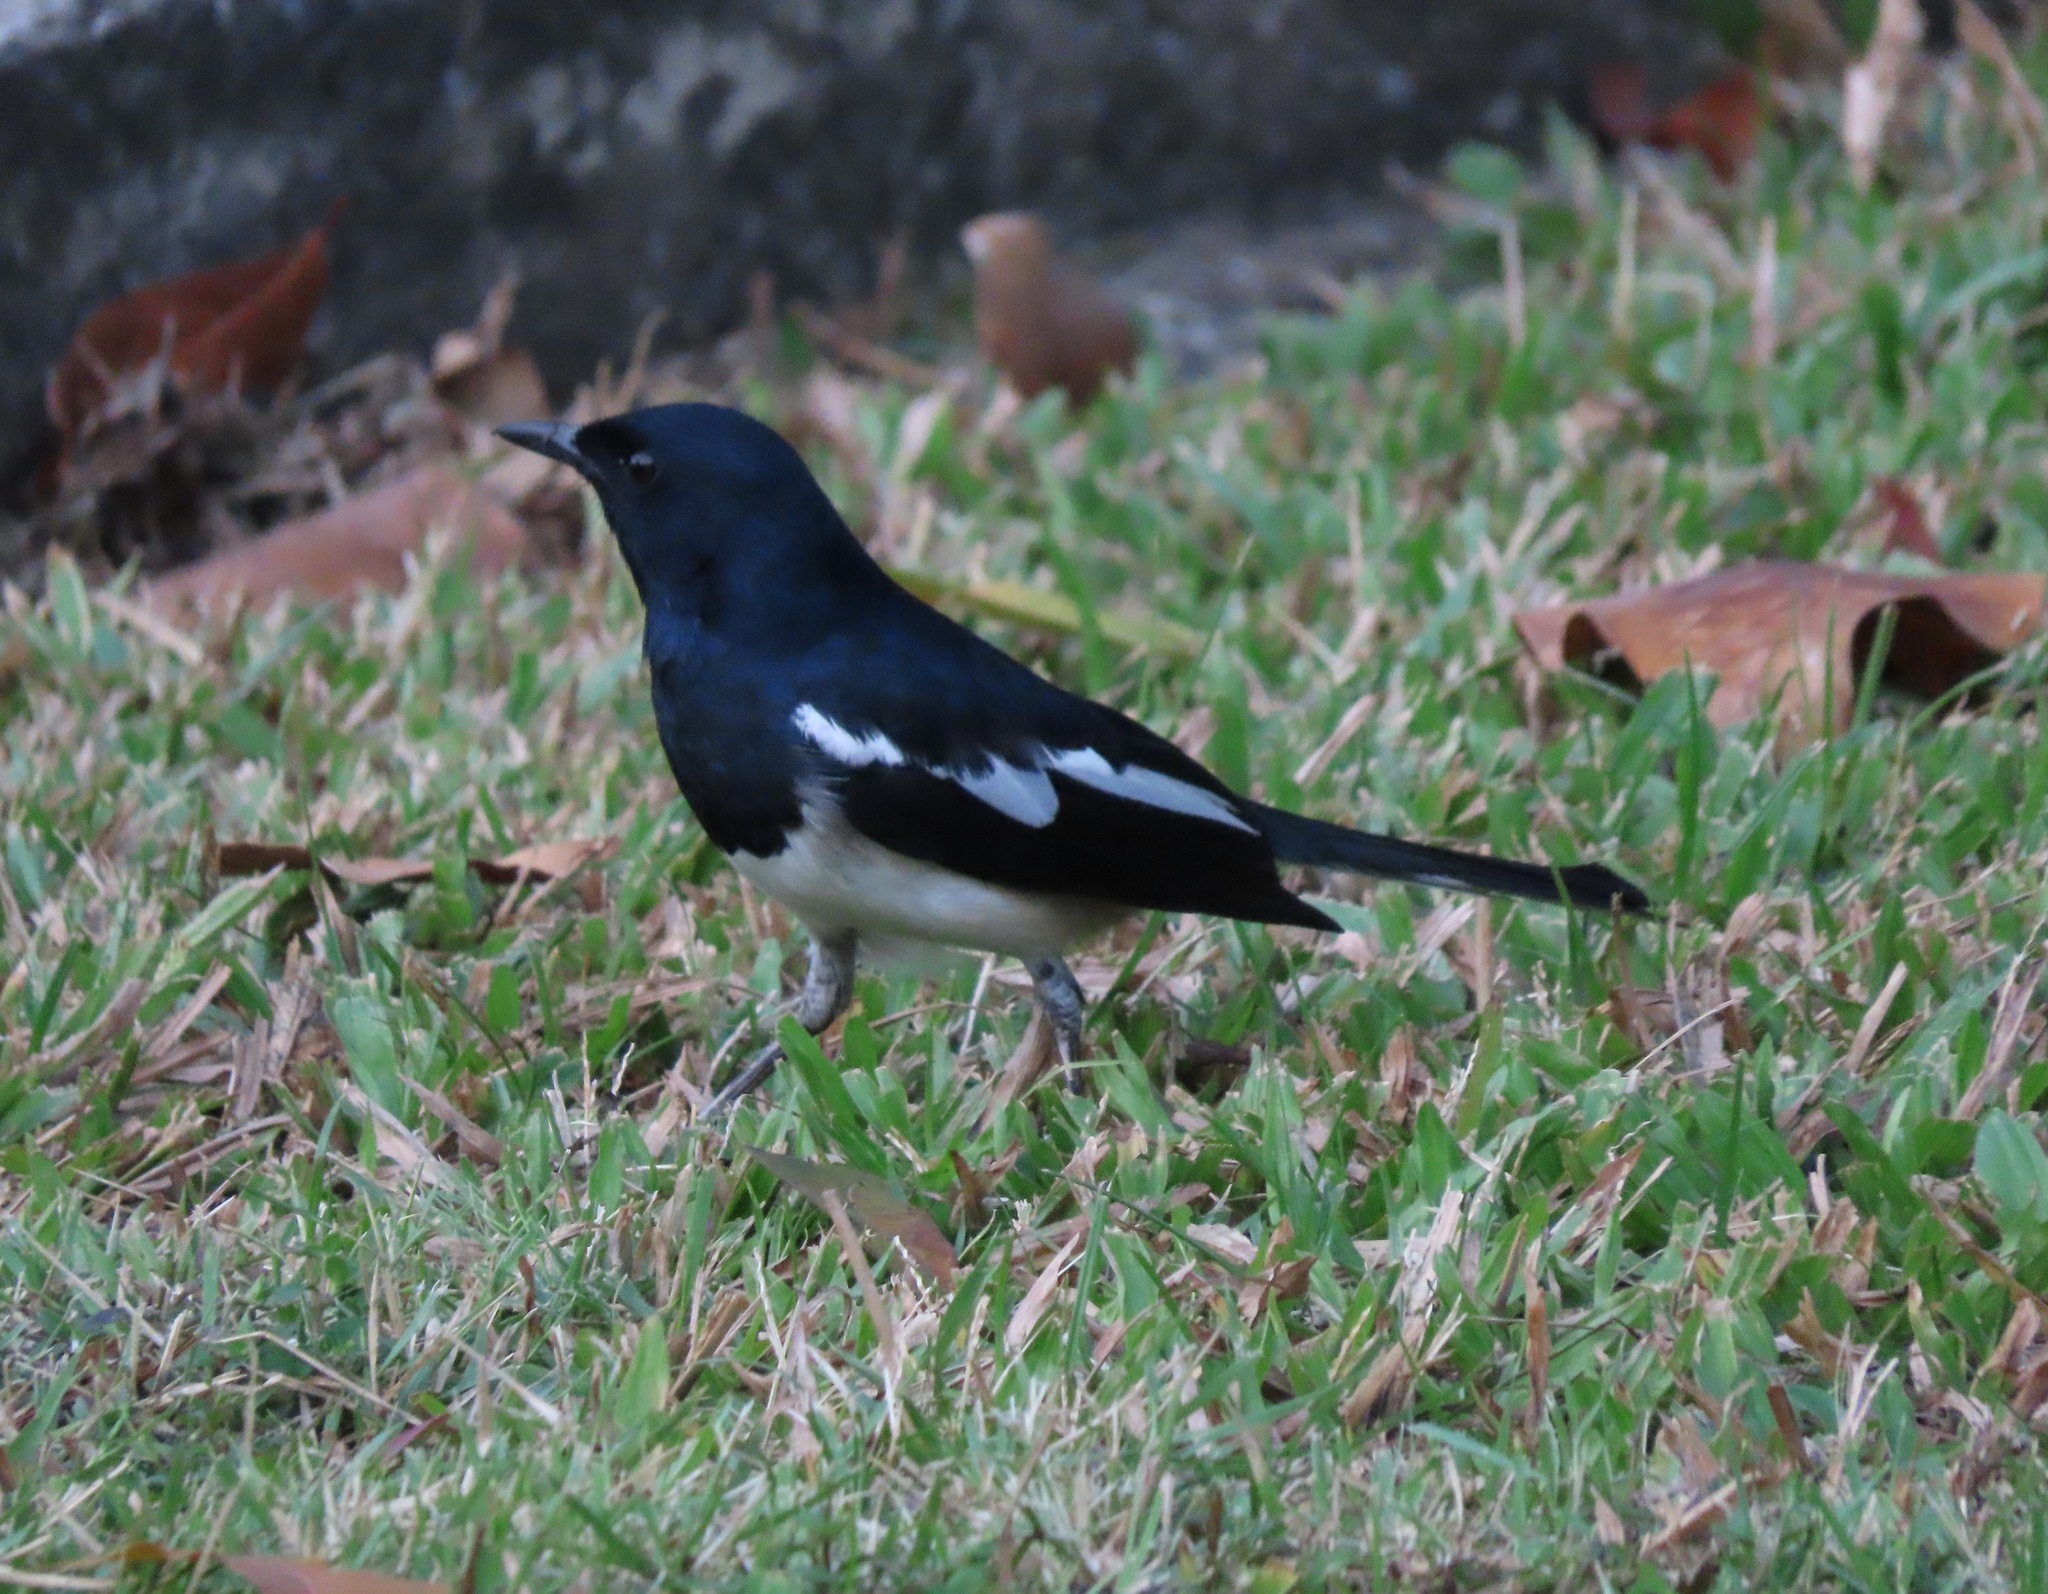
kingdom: Animalia
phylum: Chordata
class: Aves
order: Passeriformes
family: Muscicapidae
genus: Copsychus
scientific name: Copsychus saularis
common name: Oriental magpie-robin
